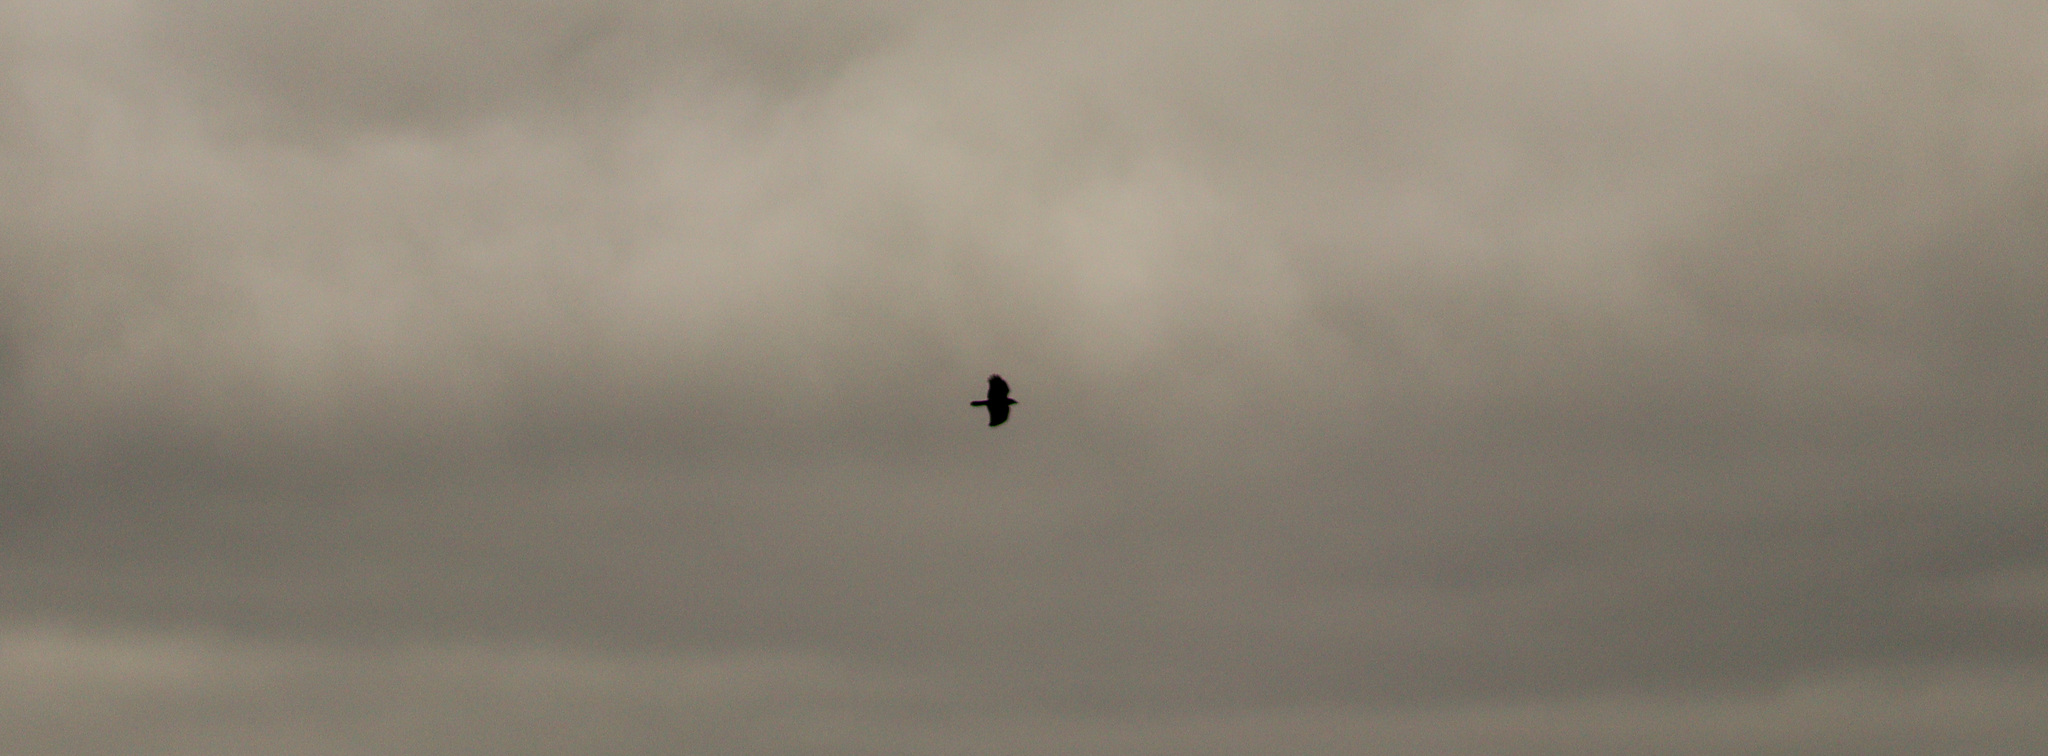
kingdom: Animalia
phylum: Chordata
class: Aves
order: Passeriformes
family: Corvidae
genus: Corvus
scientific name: Corvus brachyrhynchos
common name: American crow
